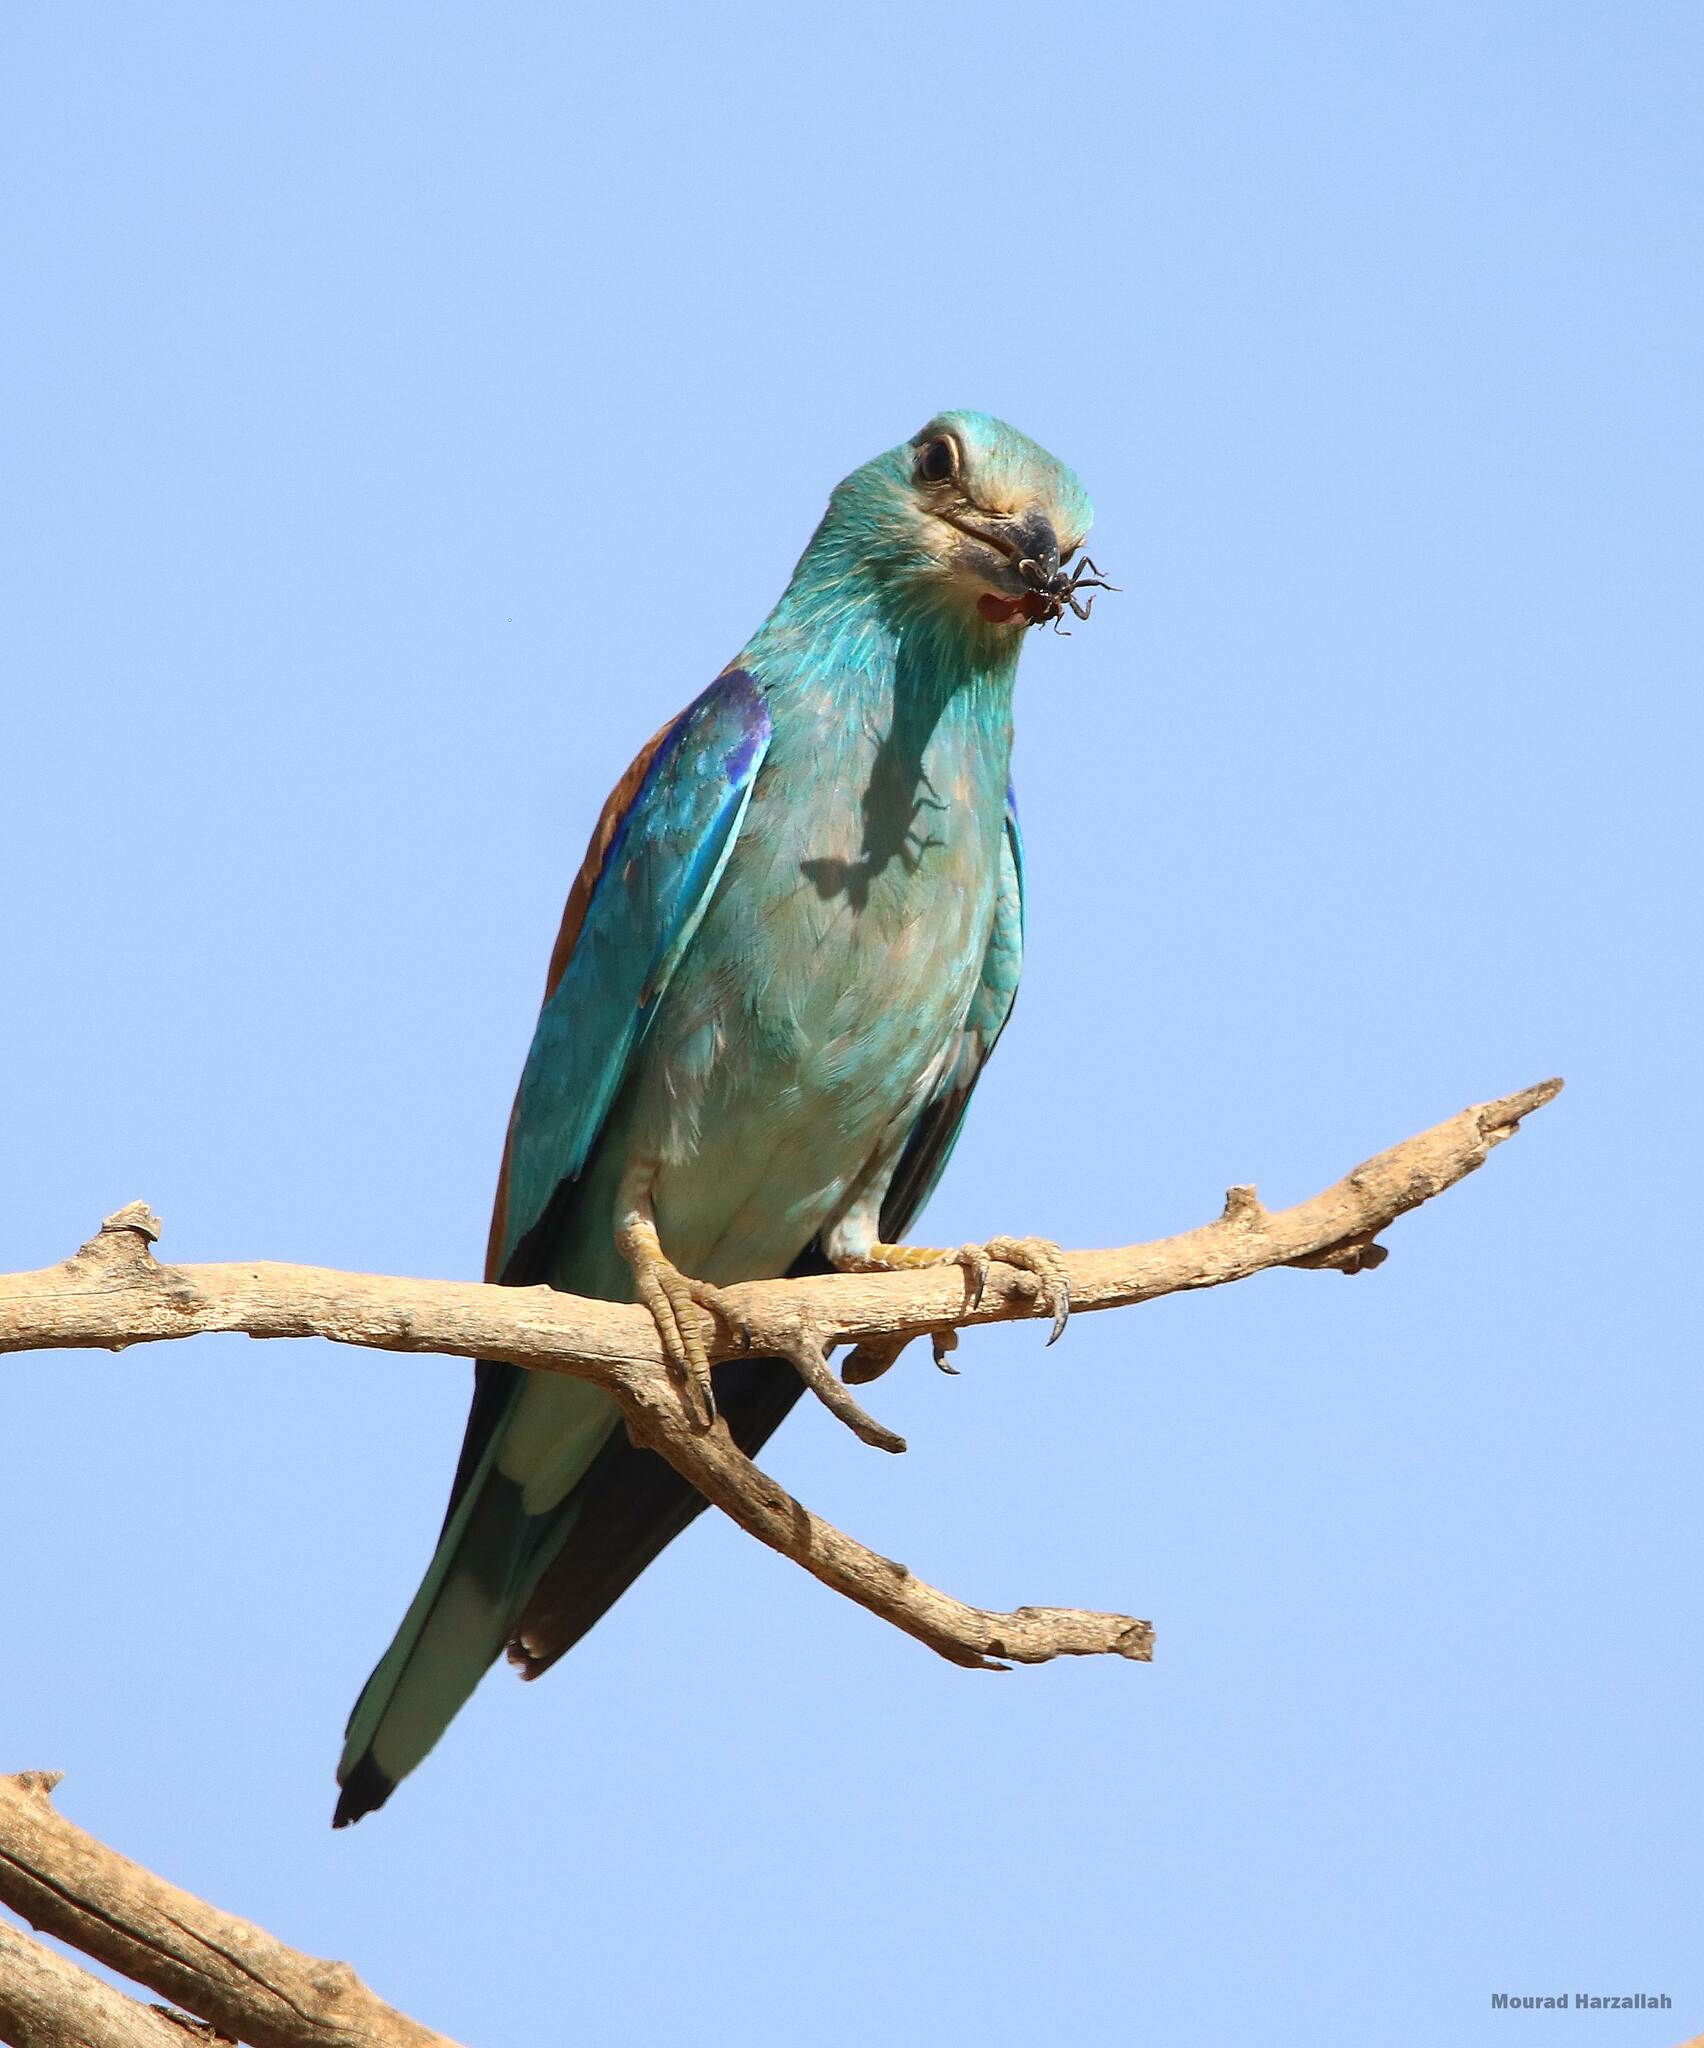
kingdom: Animalia
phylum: Chordata
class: Aves
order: Coraciiformes
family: Coraciidae
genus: Coracias
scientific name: Coracias garrulus
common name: European roller
